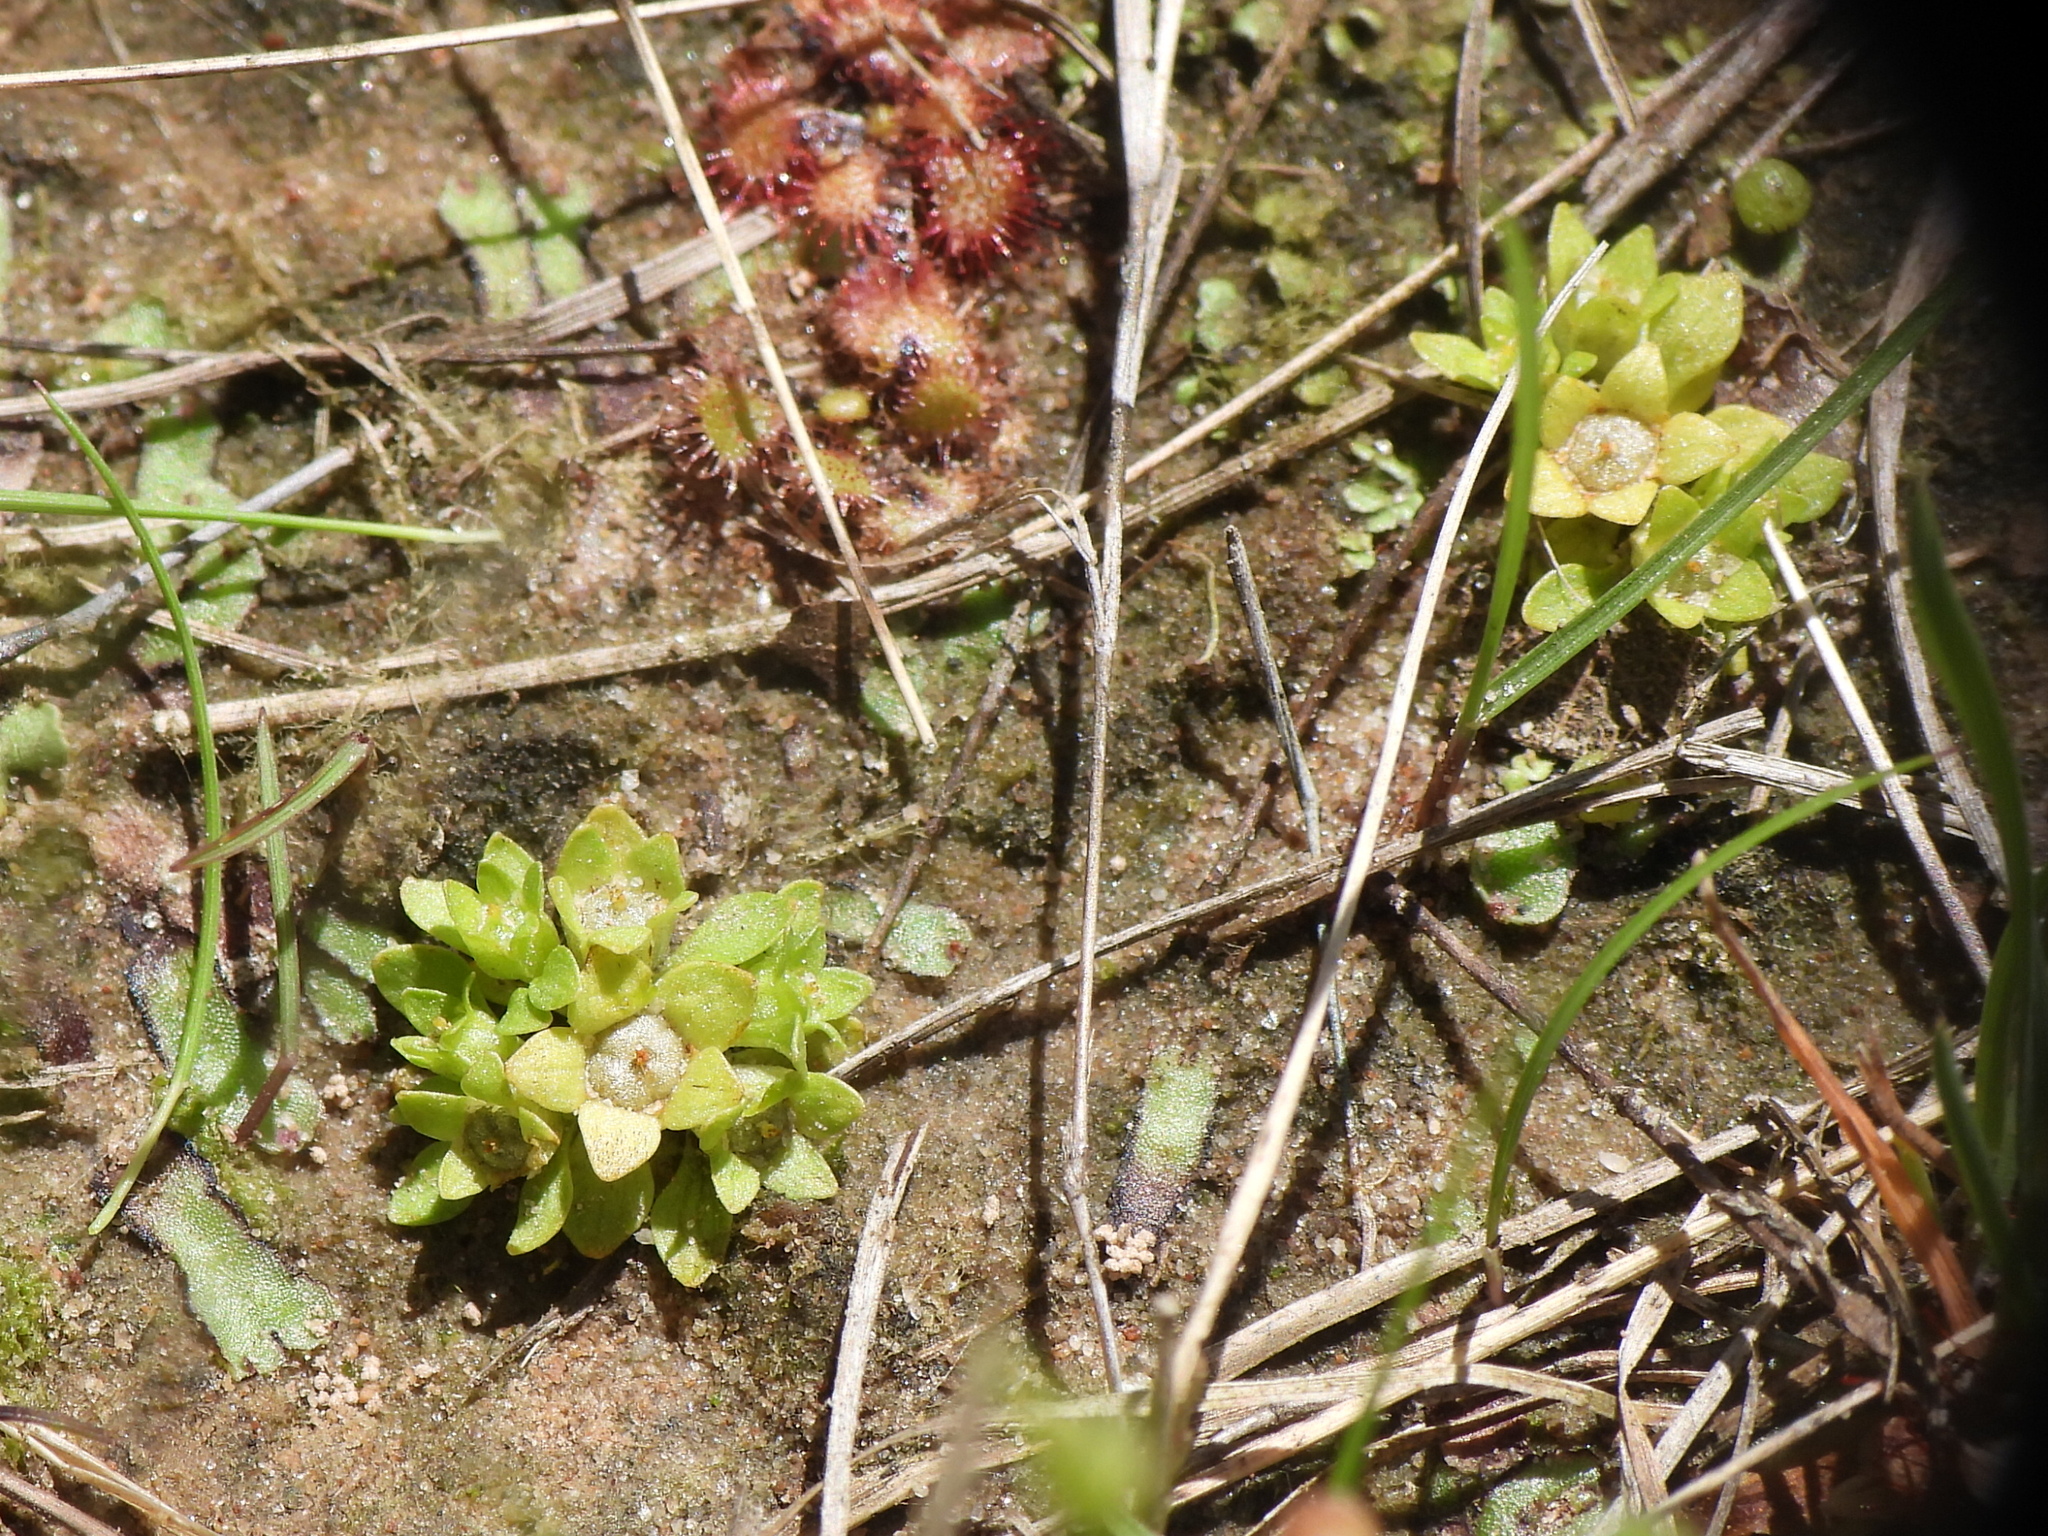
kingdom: Plantae
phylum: Tracheophyta
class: Magnoliopsida
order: Celastrales
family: Parnassiaceae
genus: Lepuropetalon
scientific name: Lepuropetalon spathulatum
